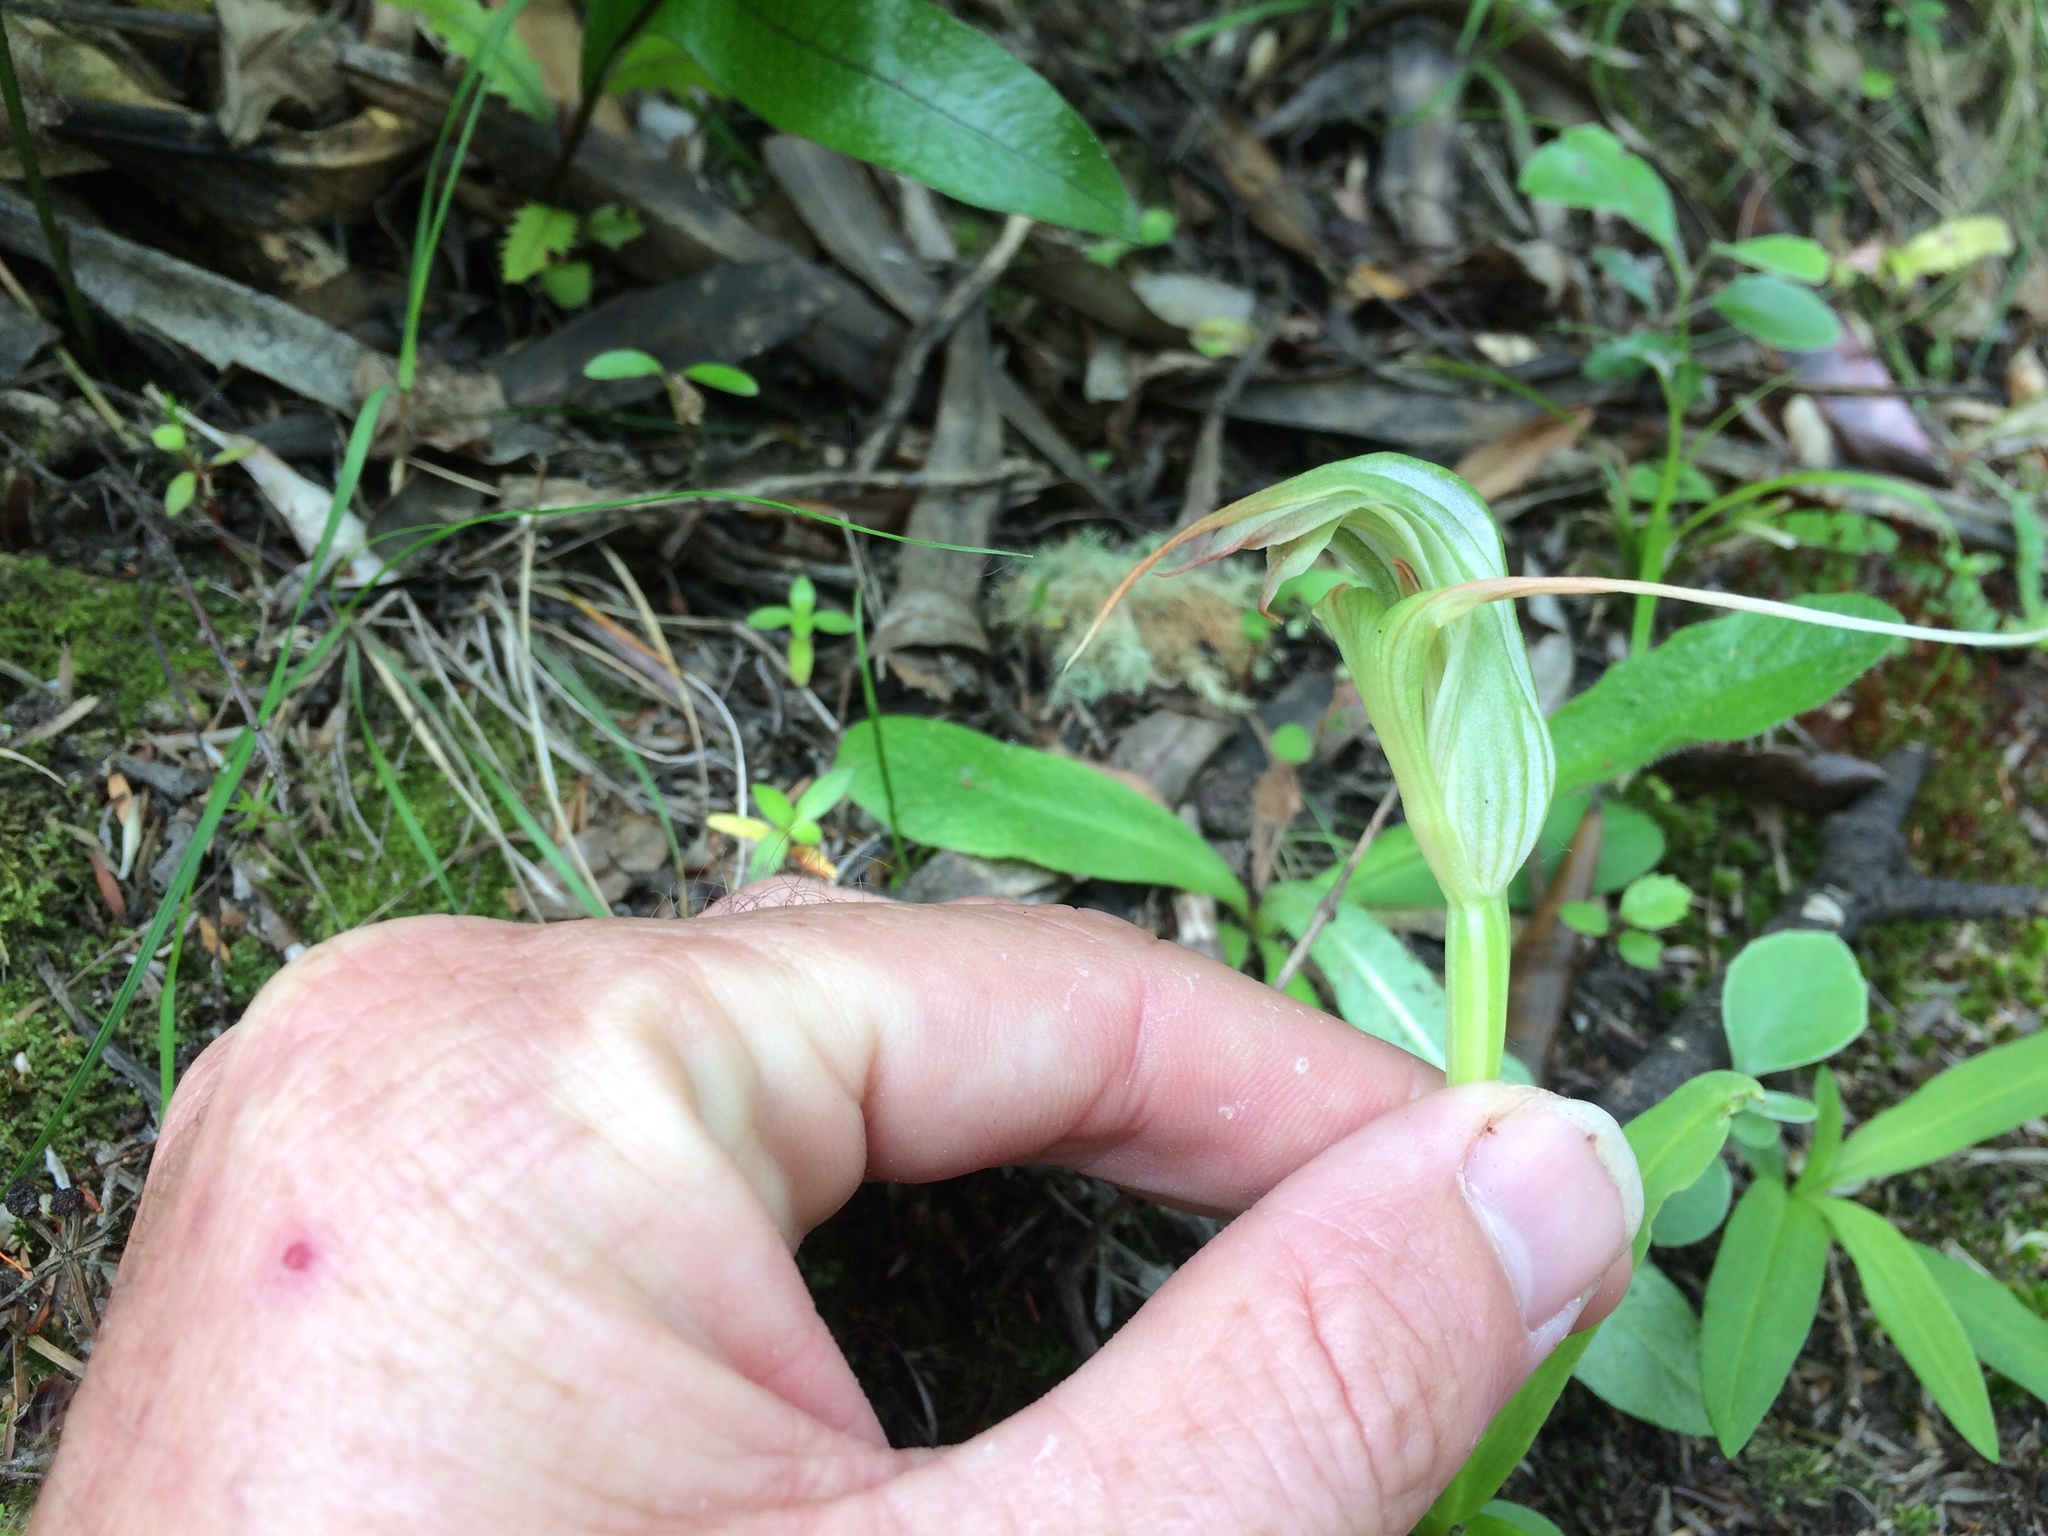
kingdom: Plantae
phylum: Tracheophyta
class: Liliopsida
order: Asparagales
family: Orchidaceae
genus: Pterostylis
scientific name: Pterostylis banksii
